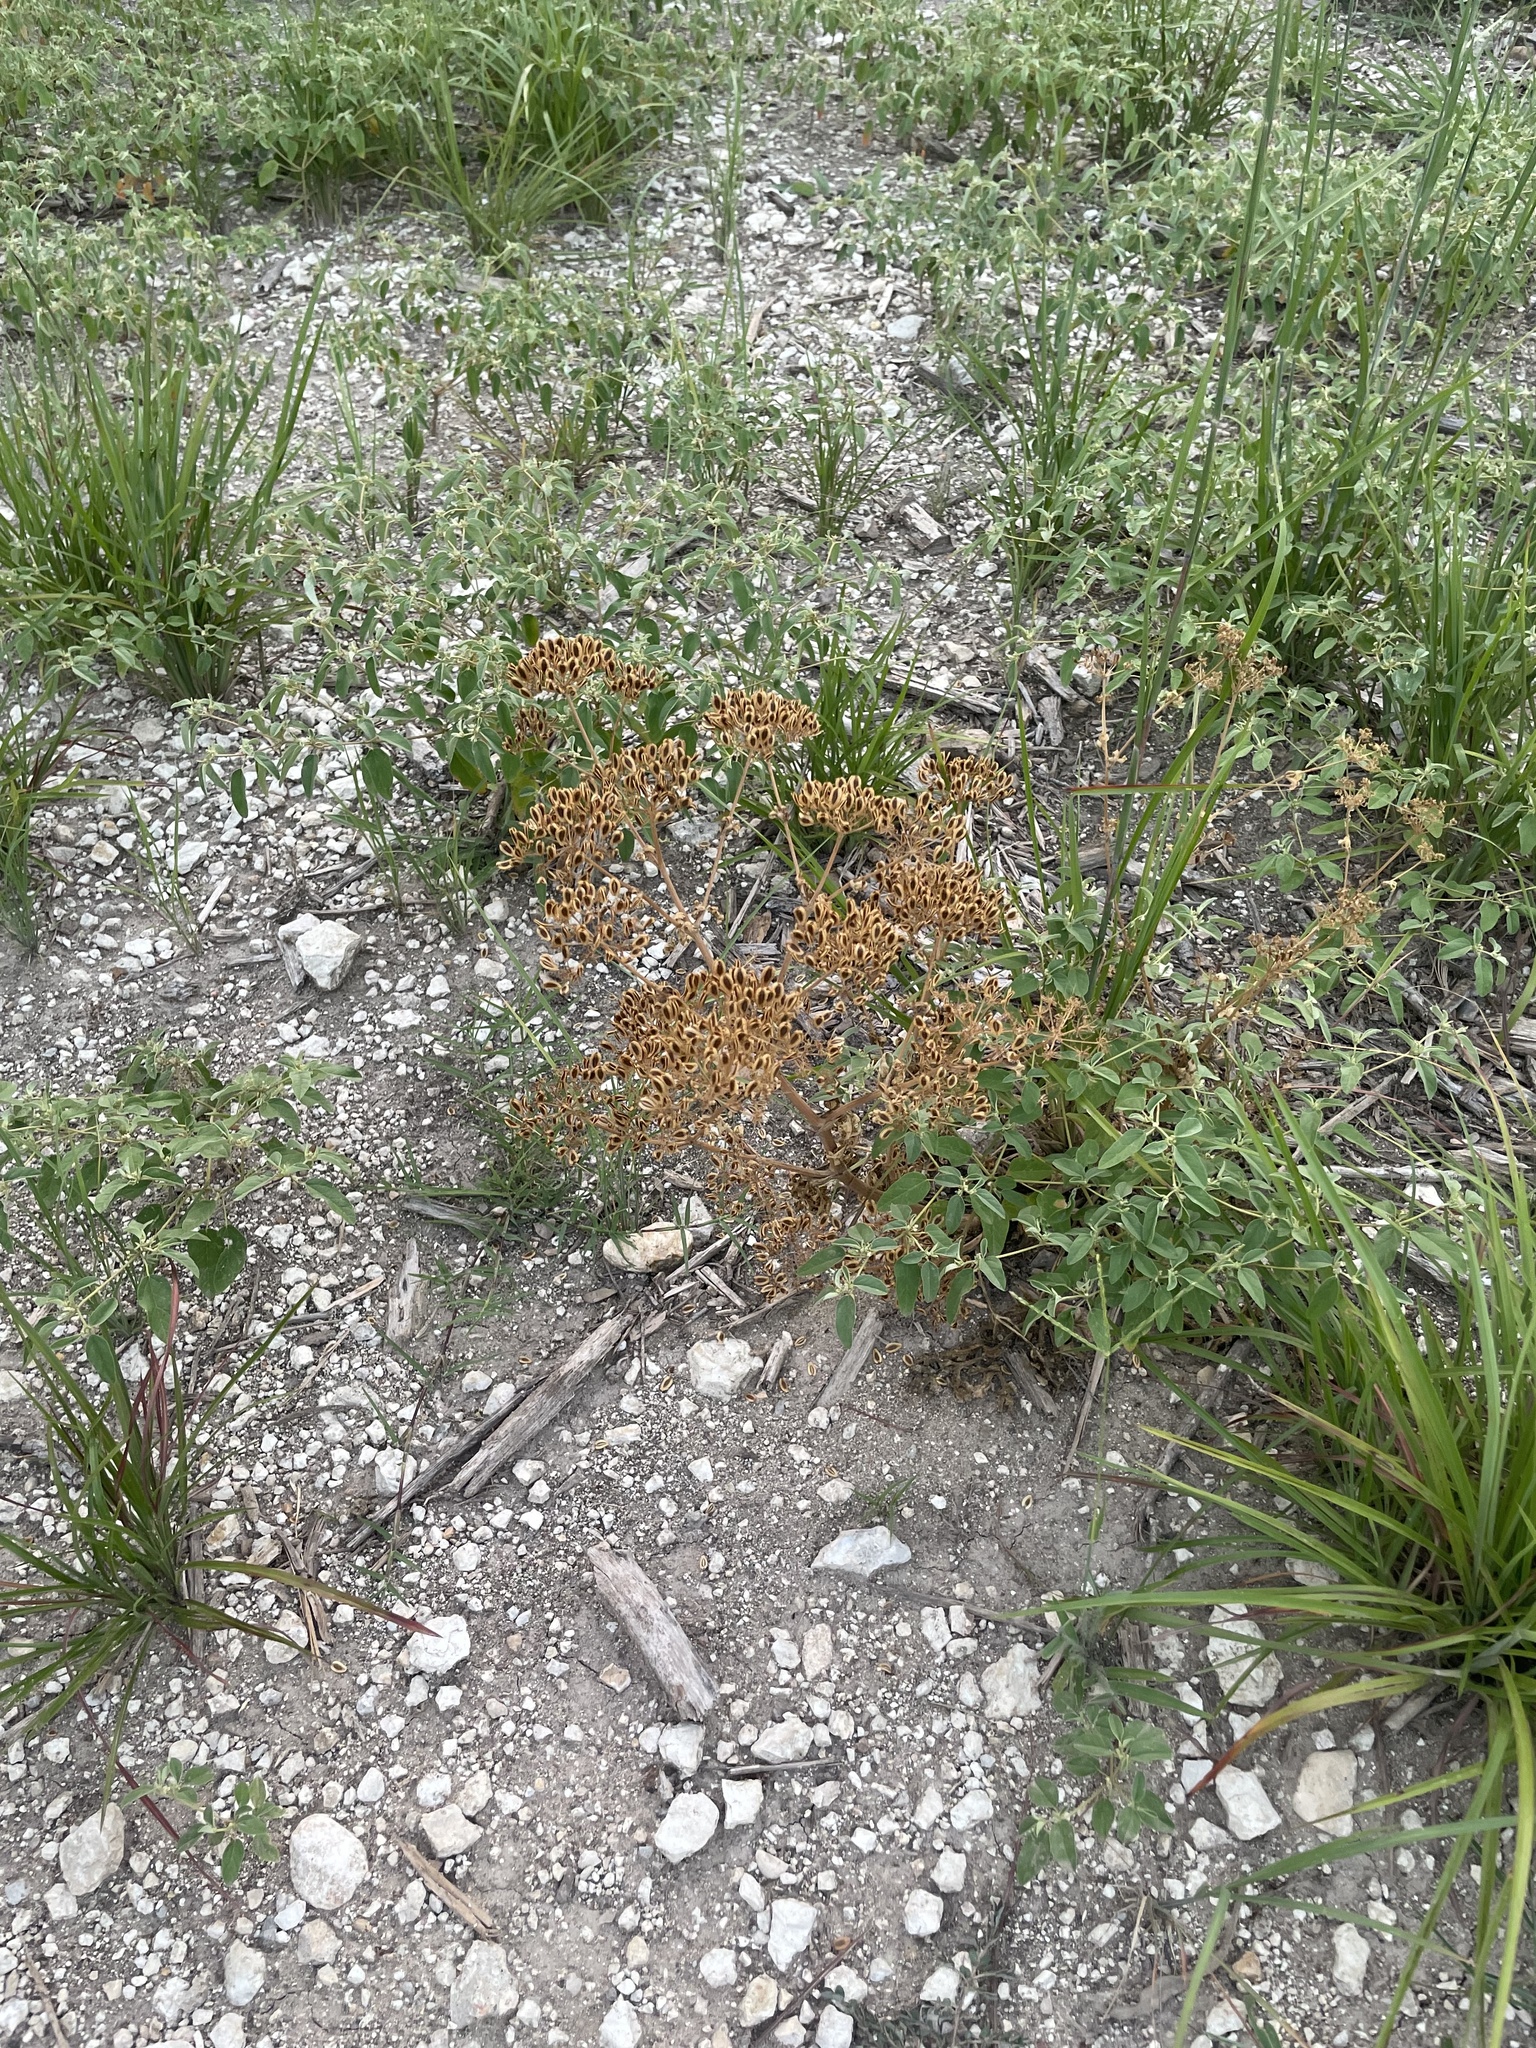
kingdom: Plantae
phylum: Tracheophyta
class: Magnoliopsida
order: Apiales
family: Apiaceae
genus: Polytaenia
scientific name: Polytaenia texana
